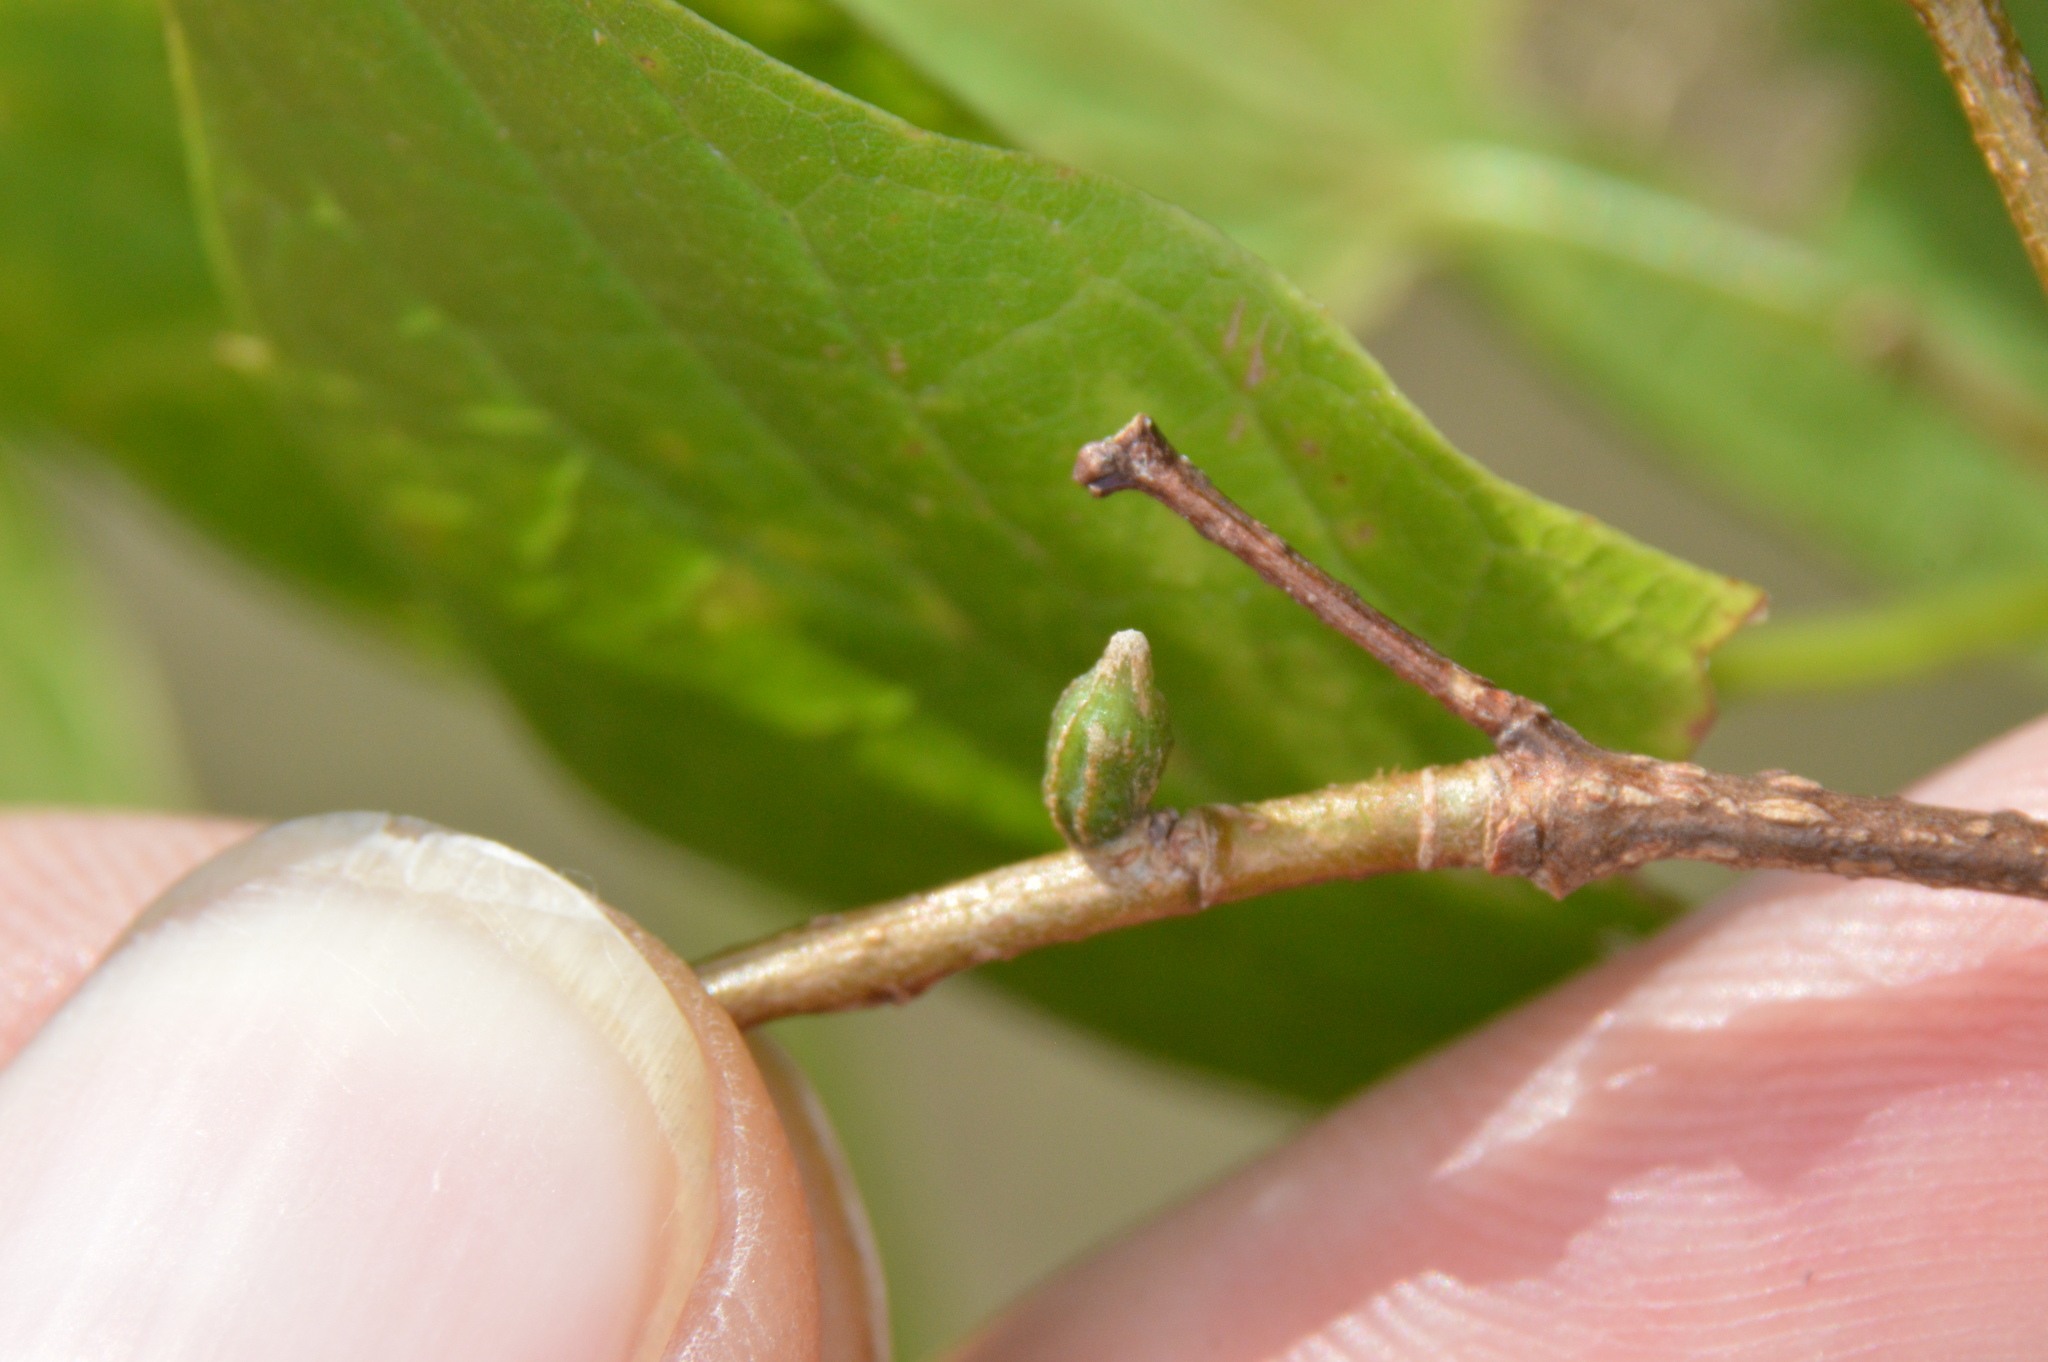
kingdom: Animalia
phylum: Arthropoda
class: Insecta
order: Diptera
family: Cecidomyiidae
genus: Celticecis
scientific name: Celticecis ramicola
